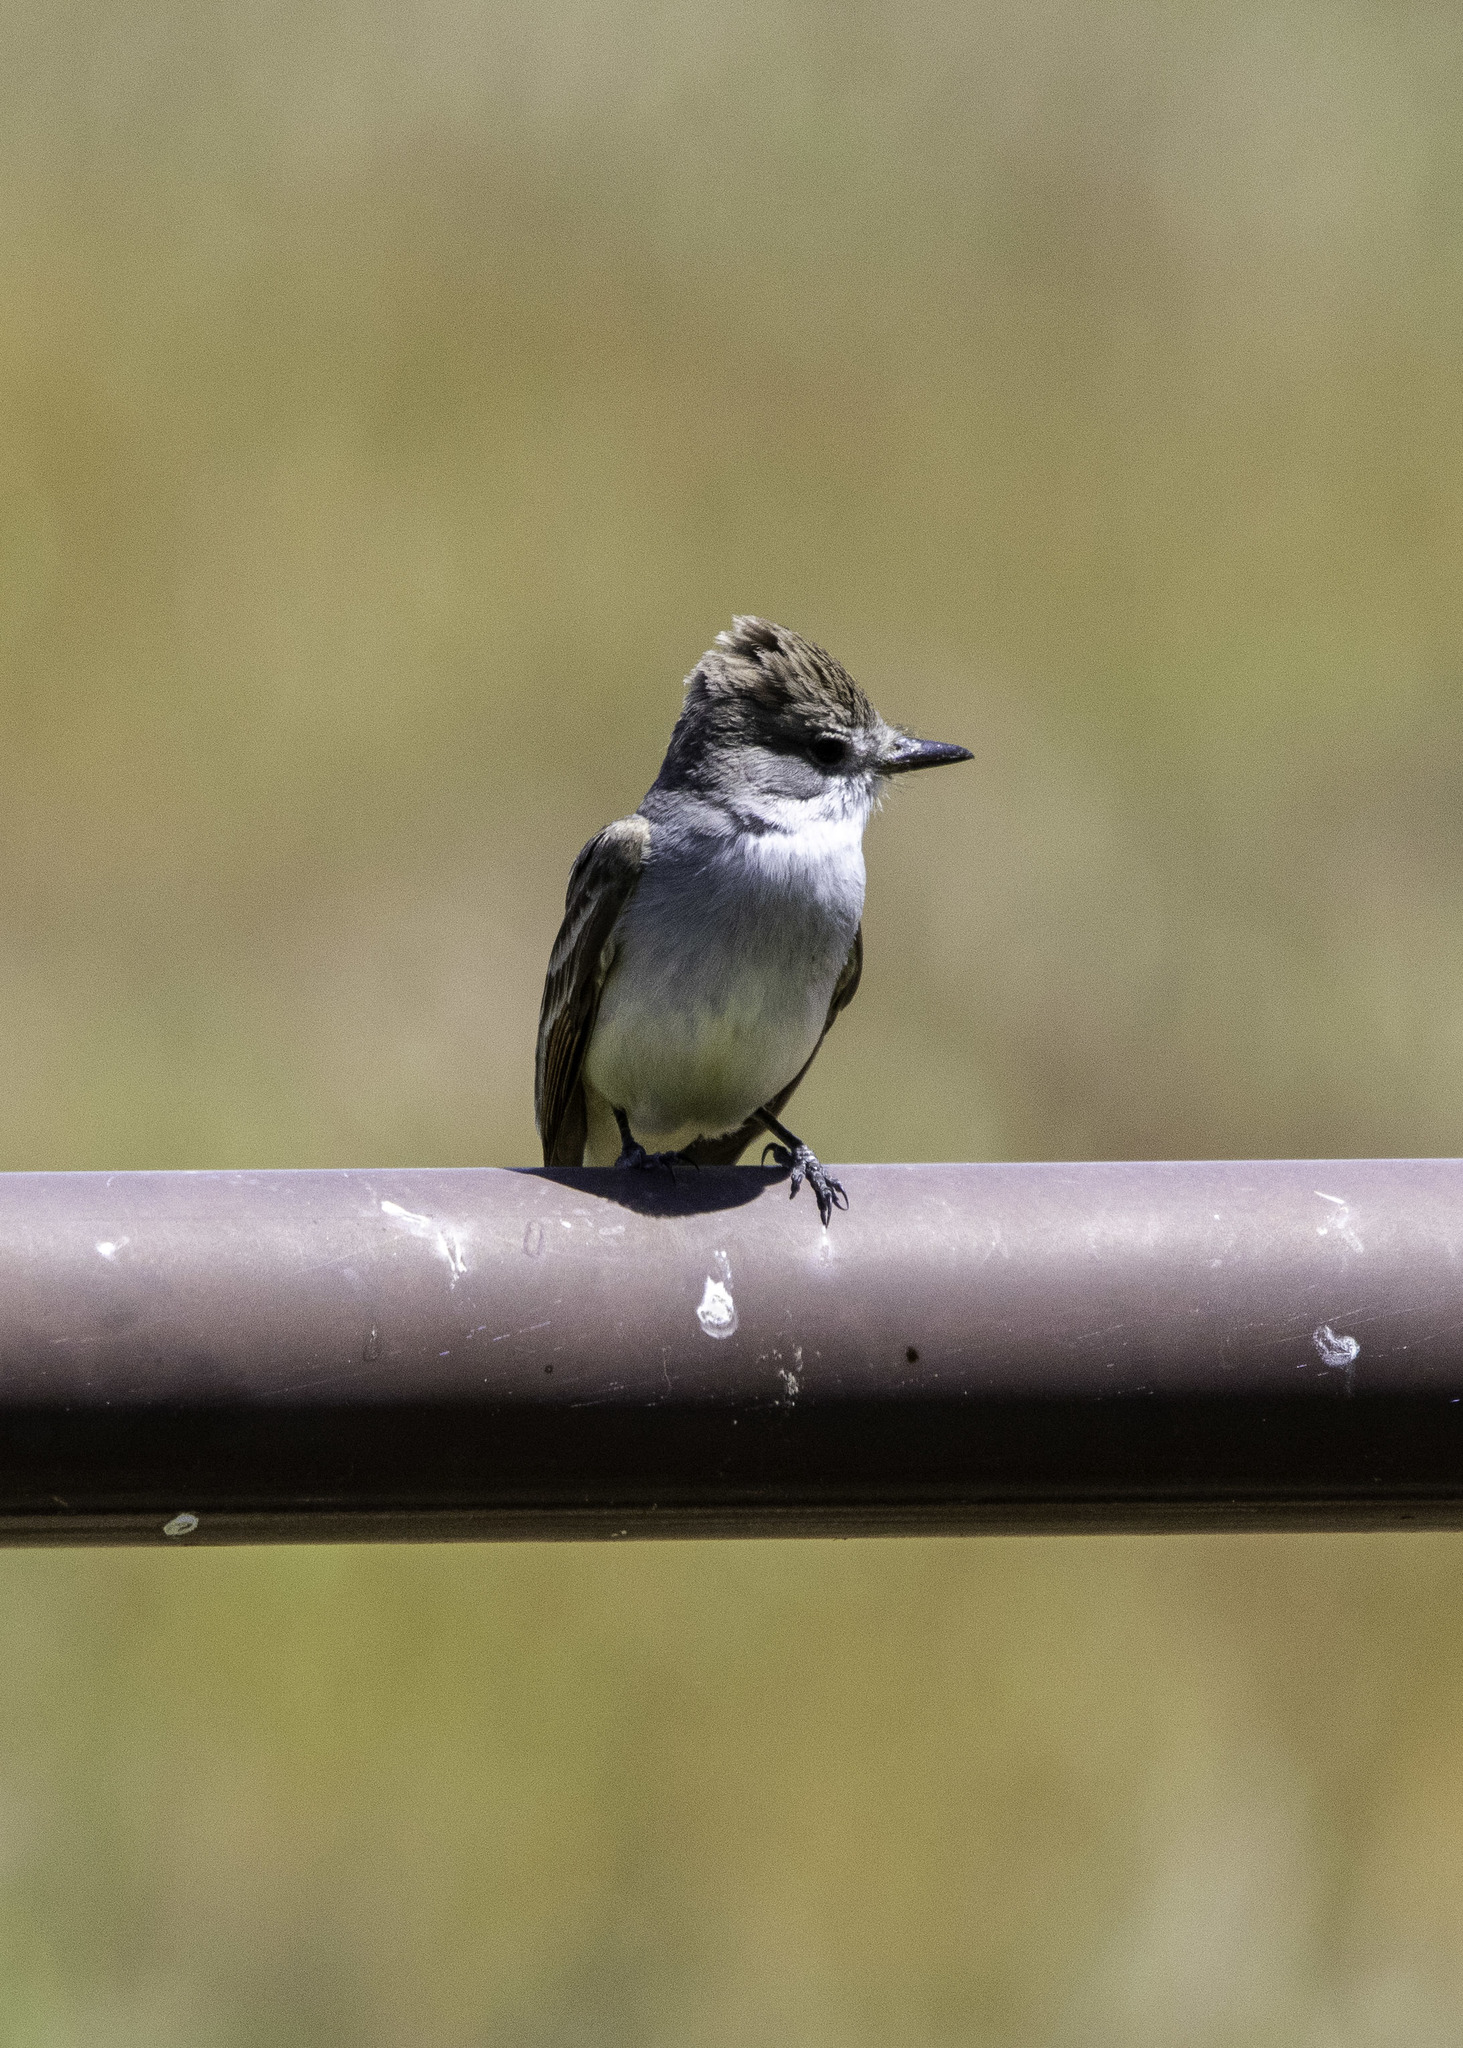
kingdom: Animalia
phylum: Chordata
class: Aves
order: Passeriformes
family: Tyrannidae
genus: Myiarchus
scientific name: Myiarchus cinerascens
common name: Ash-throated flycatcher
